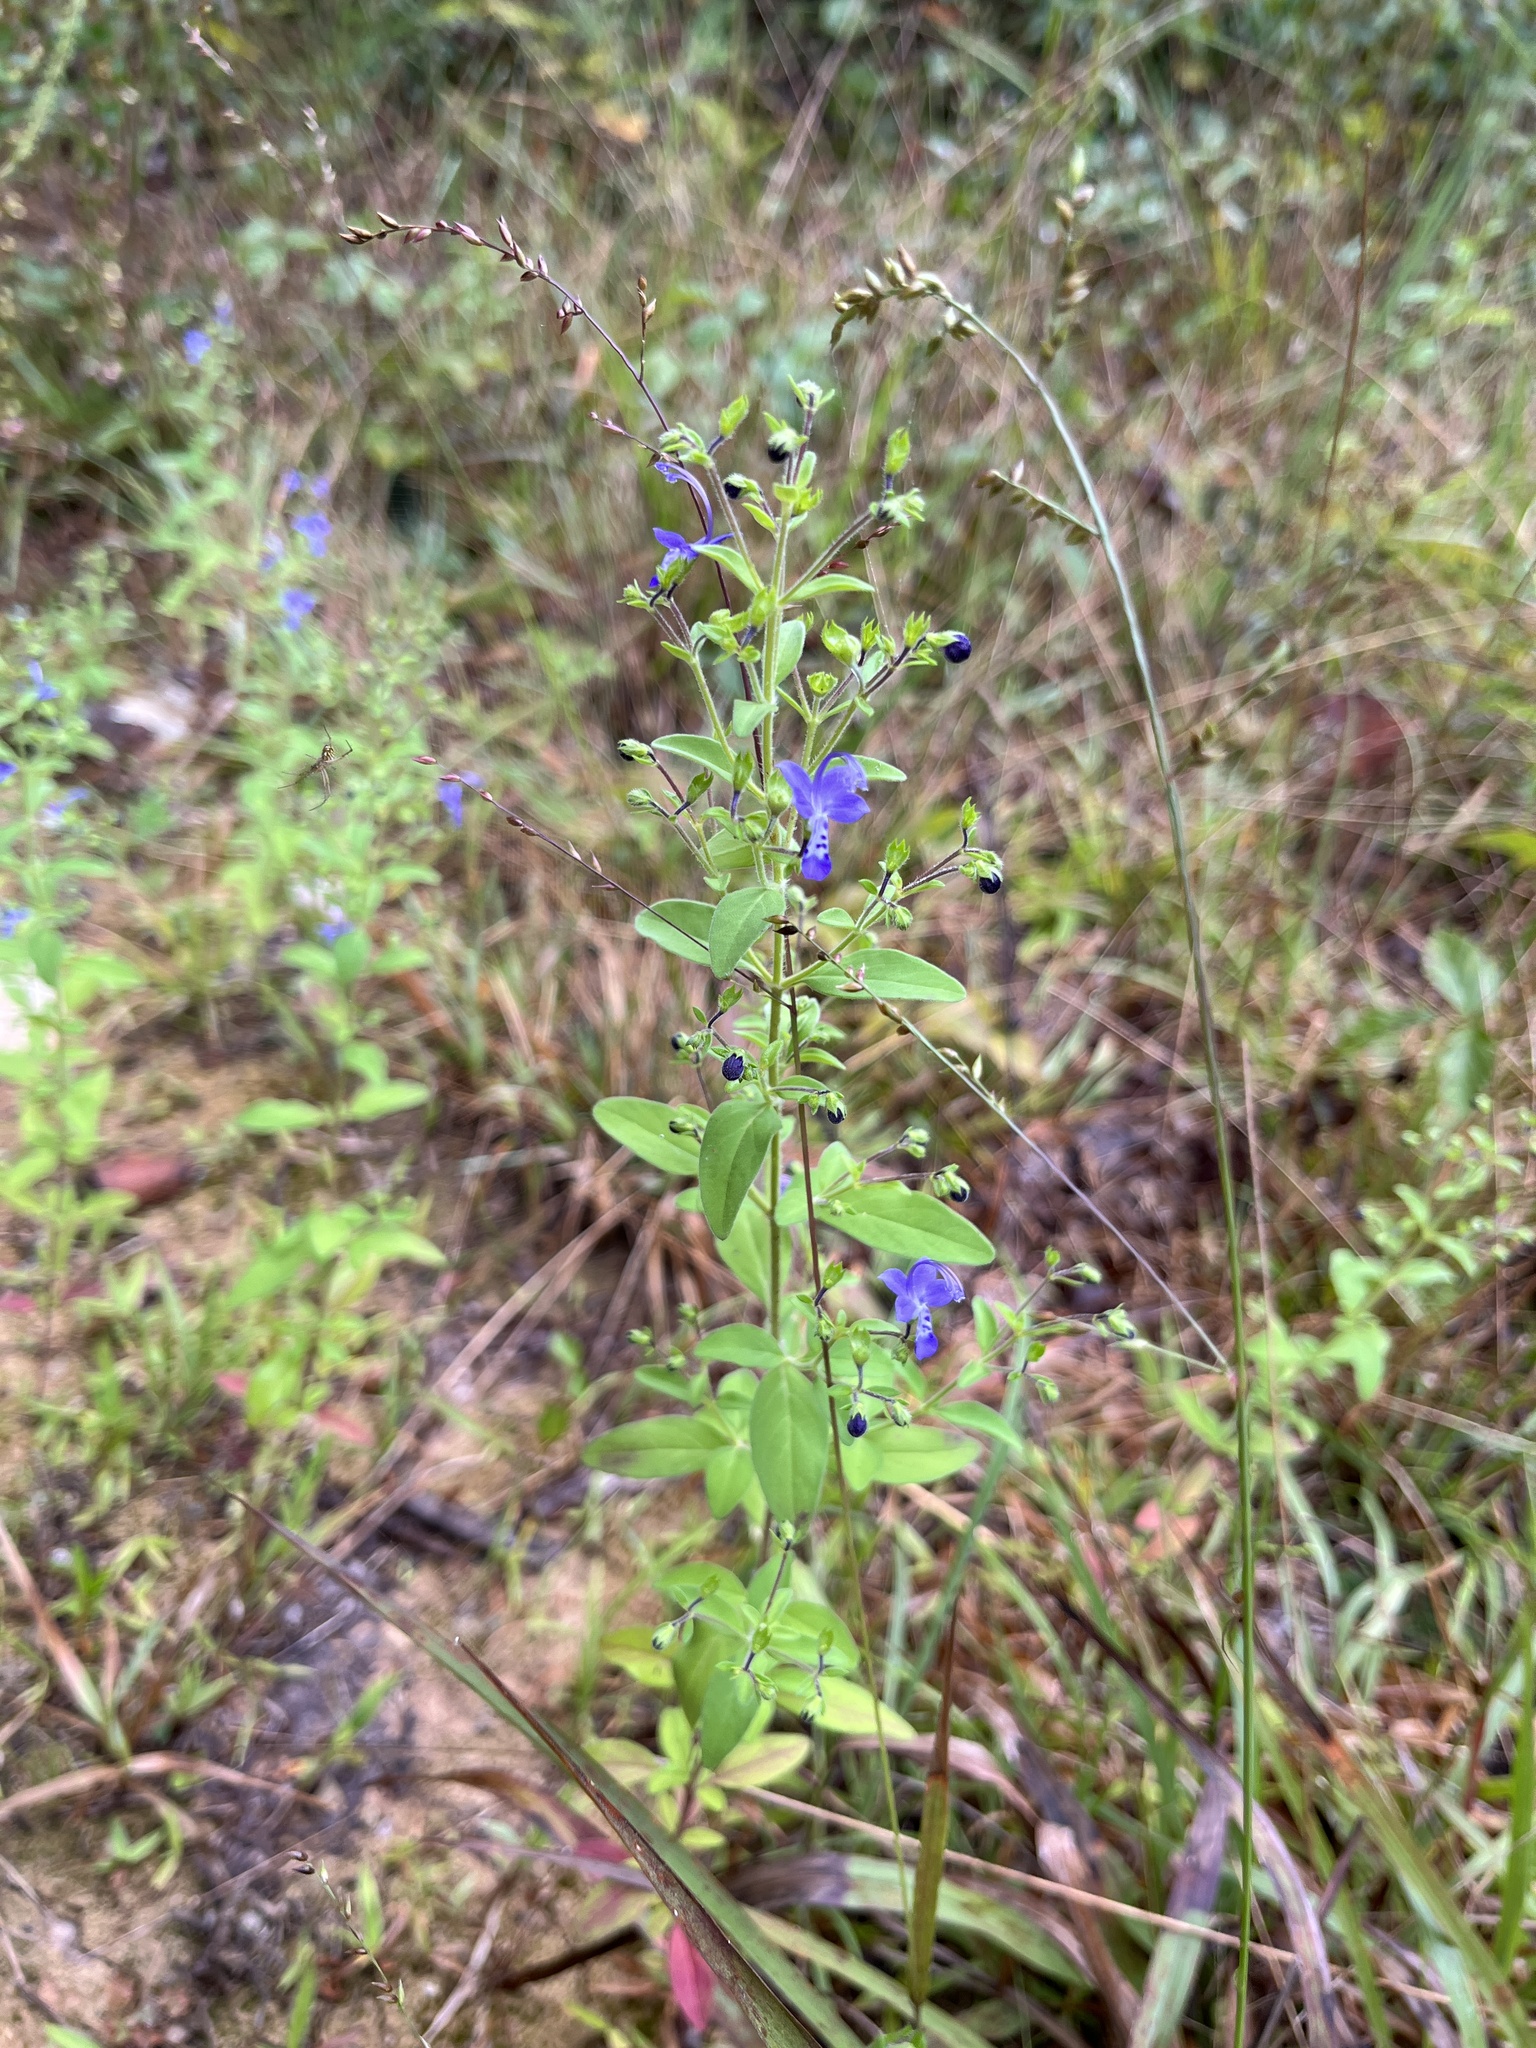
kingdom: Plantae
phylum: Tracheophyta
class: Magnoliopsida
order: Lamiales
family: Lamiaceae
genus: Trichostema
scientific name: Trichostema dichotomum
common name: Bastard pennyroyal
